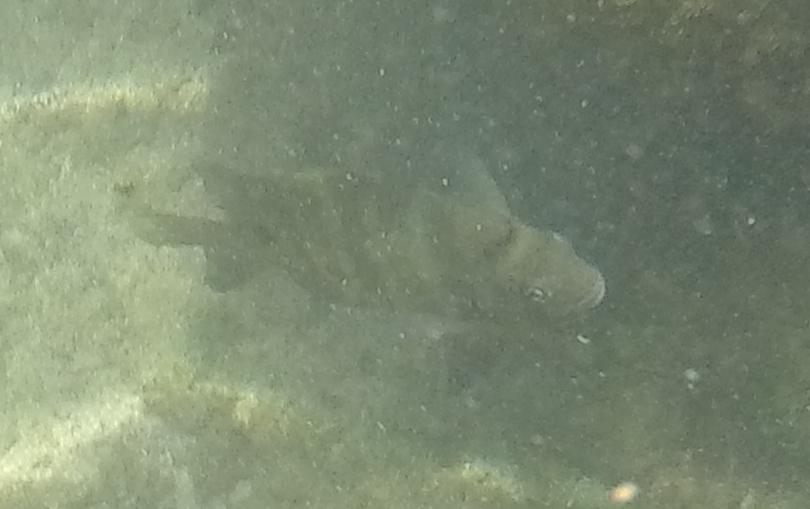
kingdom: Animalia
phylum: Chordata
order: Perciformes
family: Pomacentridae
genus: Abudefduf
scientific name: Abudefduf sordidus
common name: Blackspot sergeant
